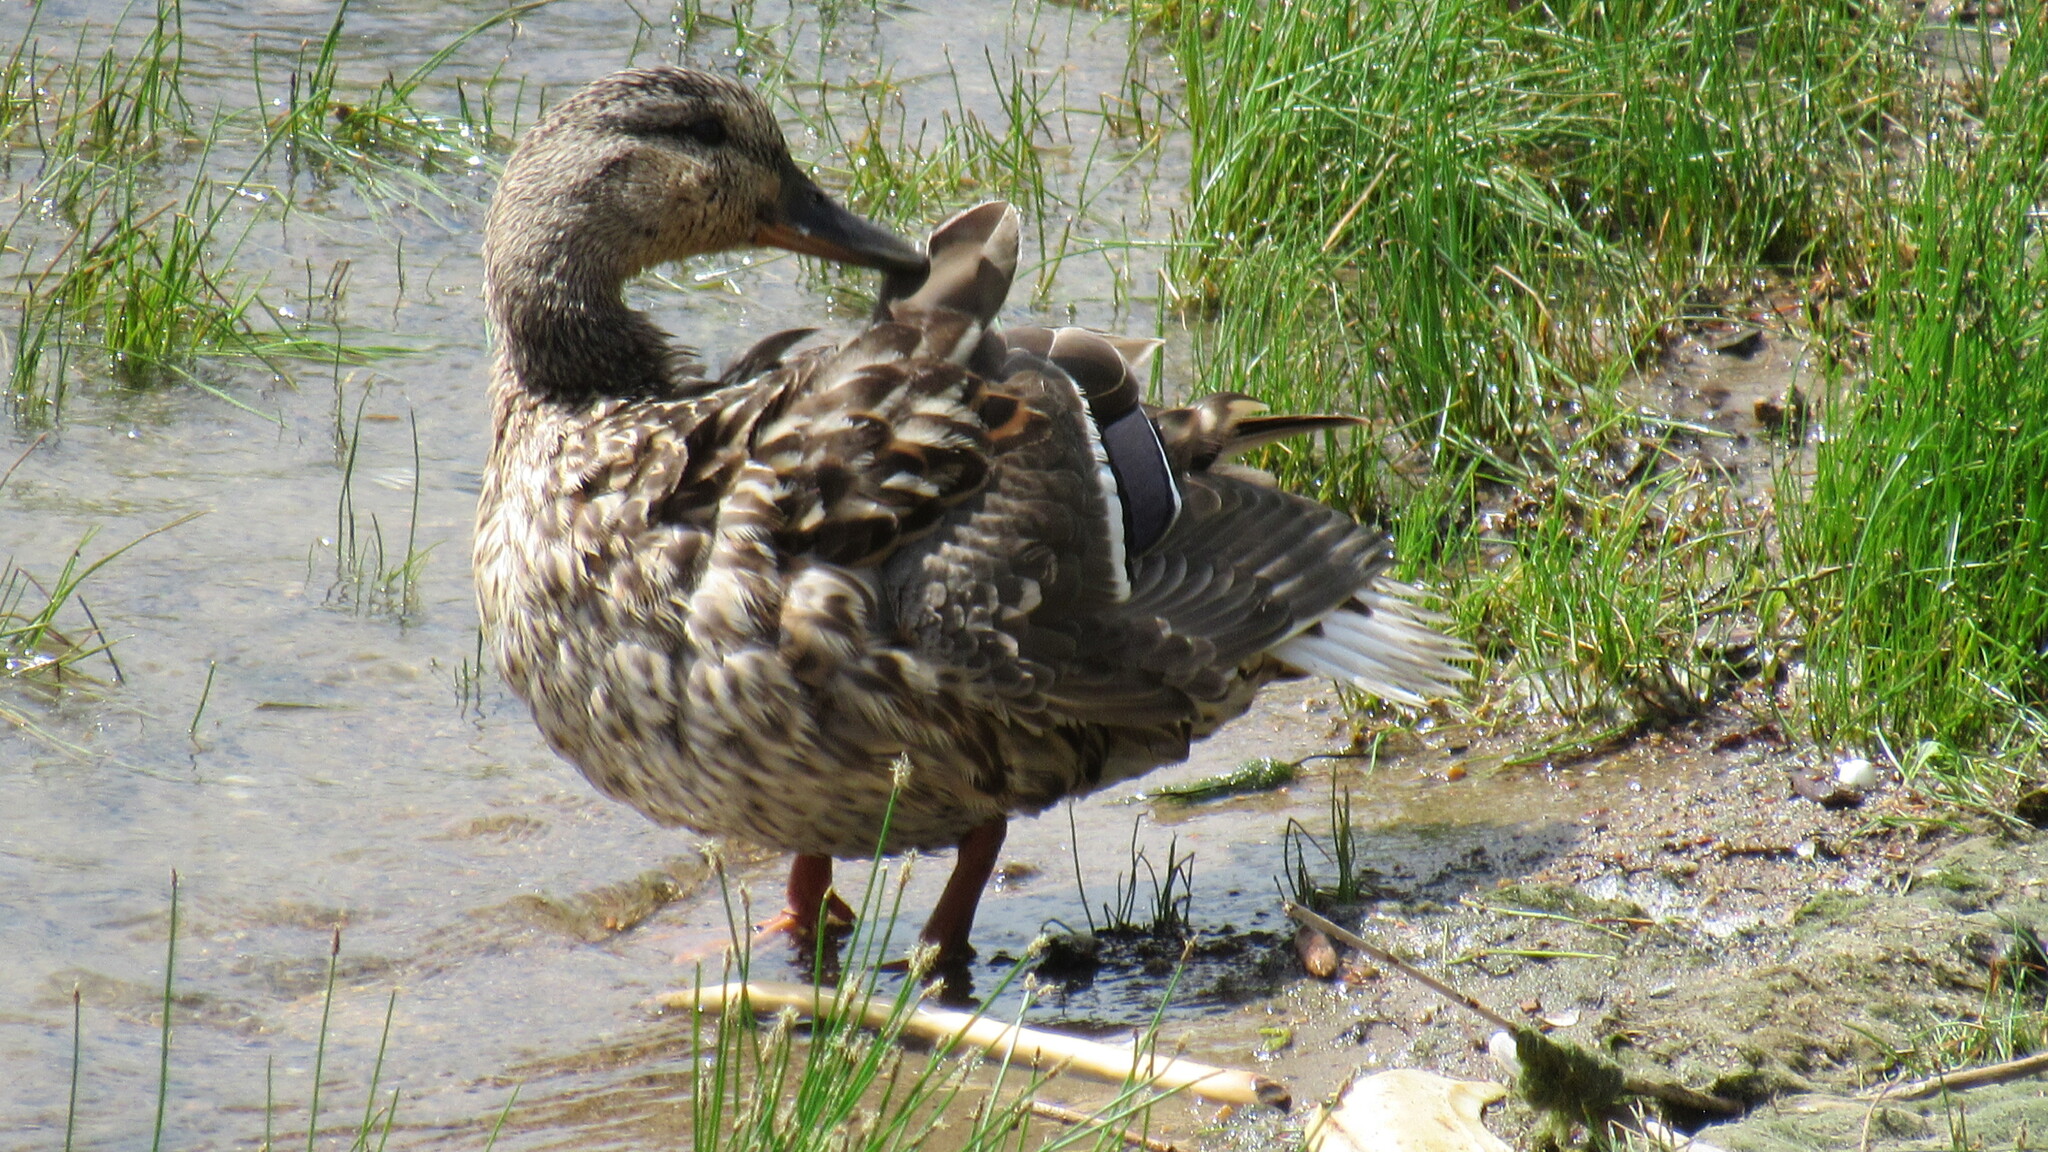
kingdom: Animalia
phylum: Chordata
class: Aves
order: Anseriformes
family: Anatidae
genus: Anas
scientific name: Anas platyrhynchos
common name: Mallard
